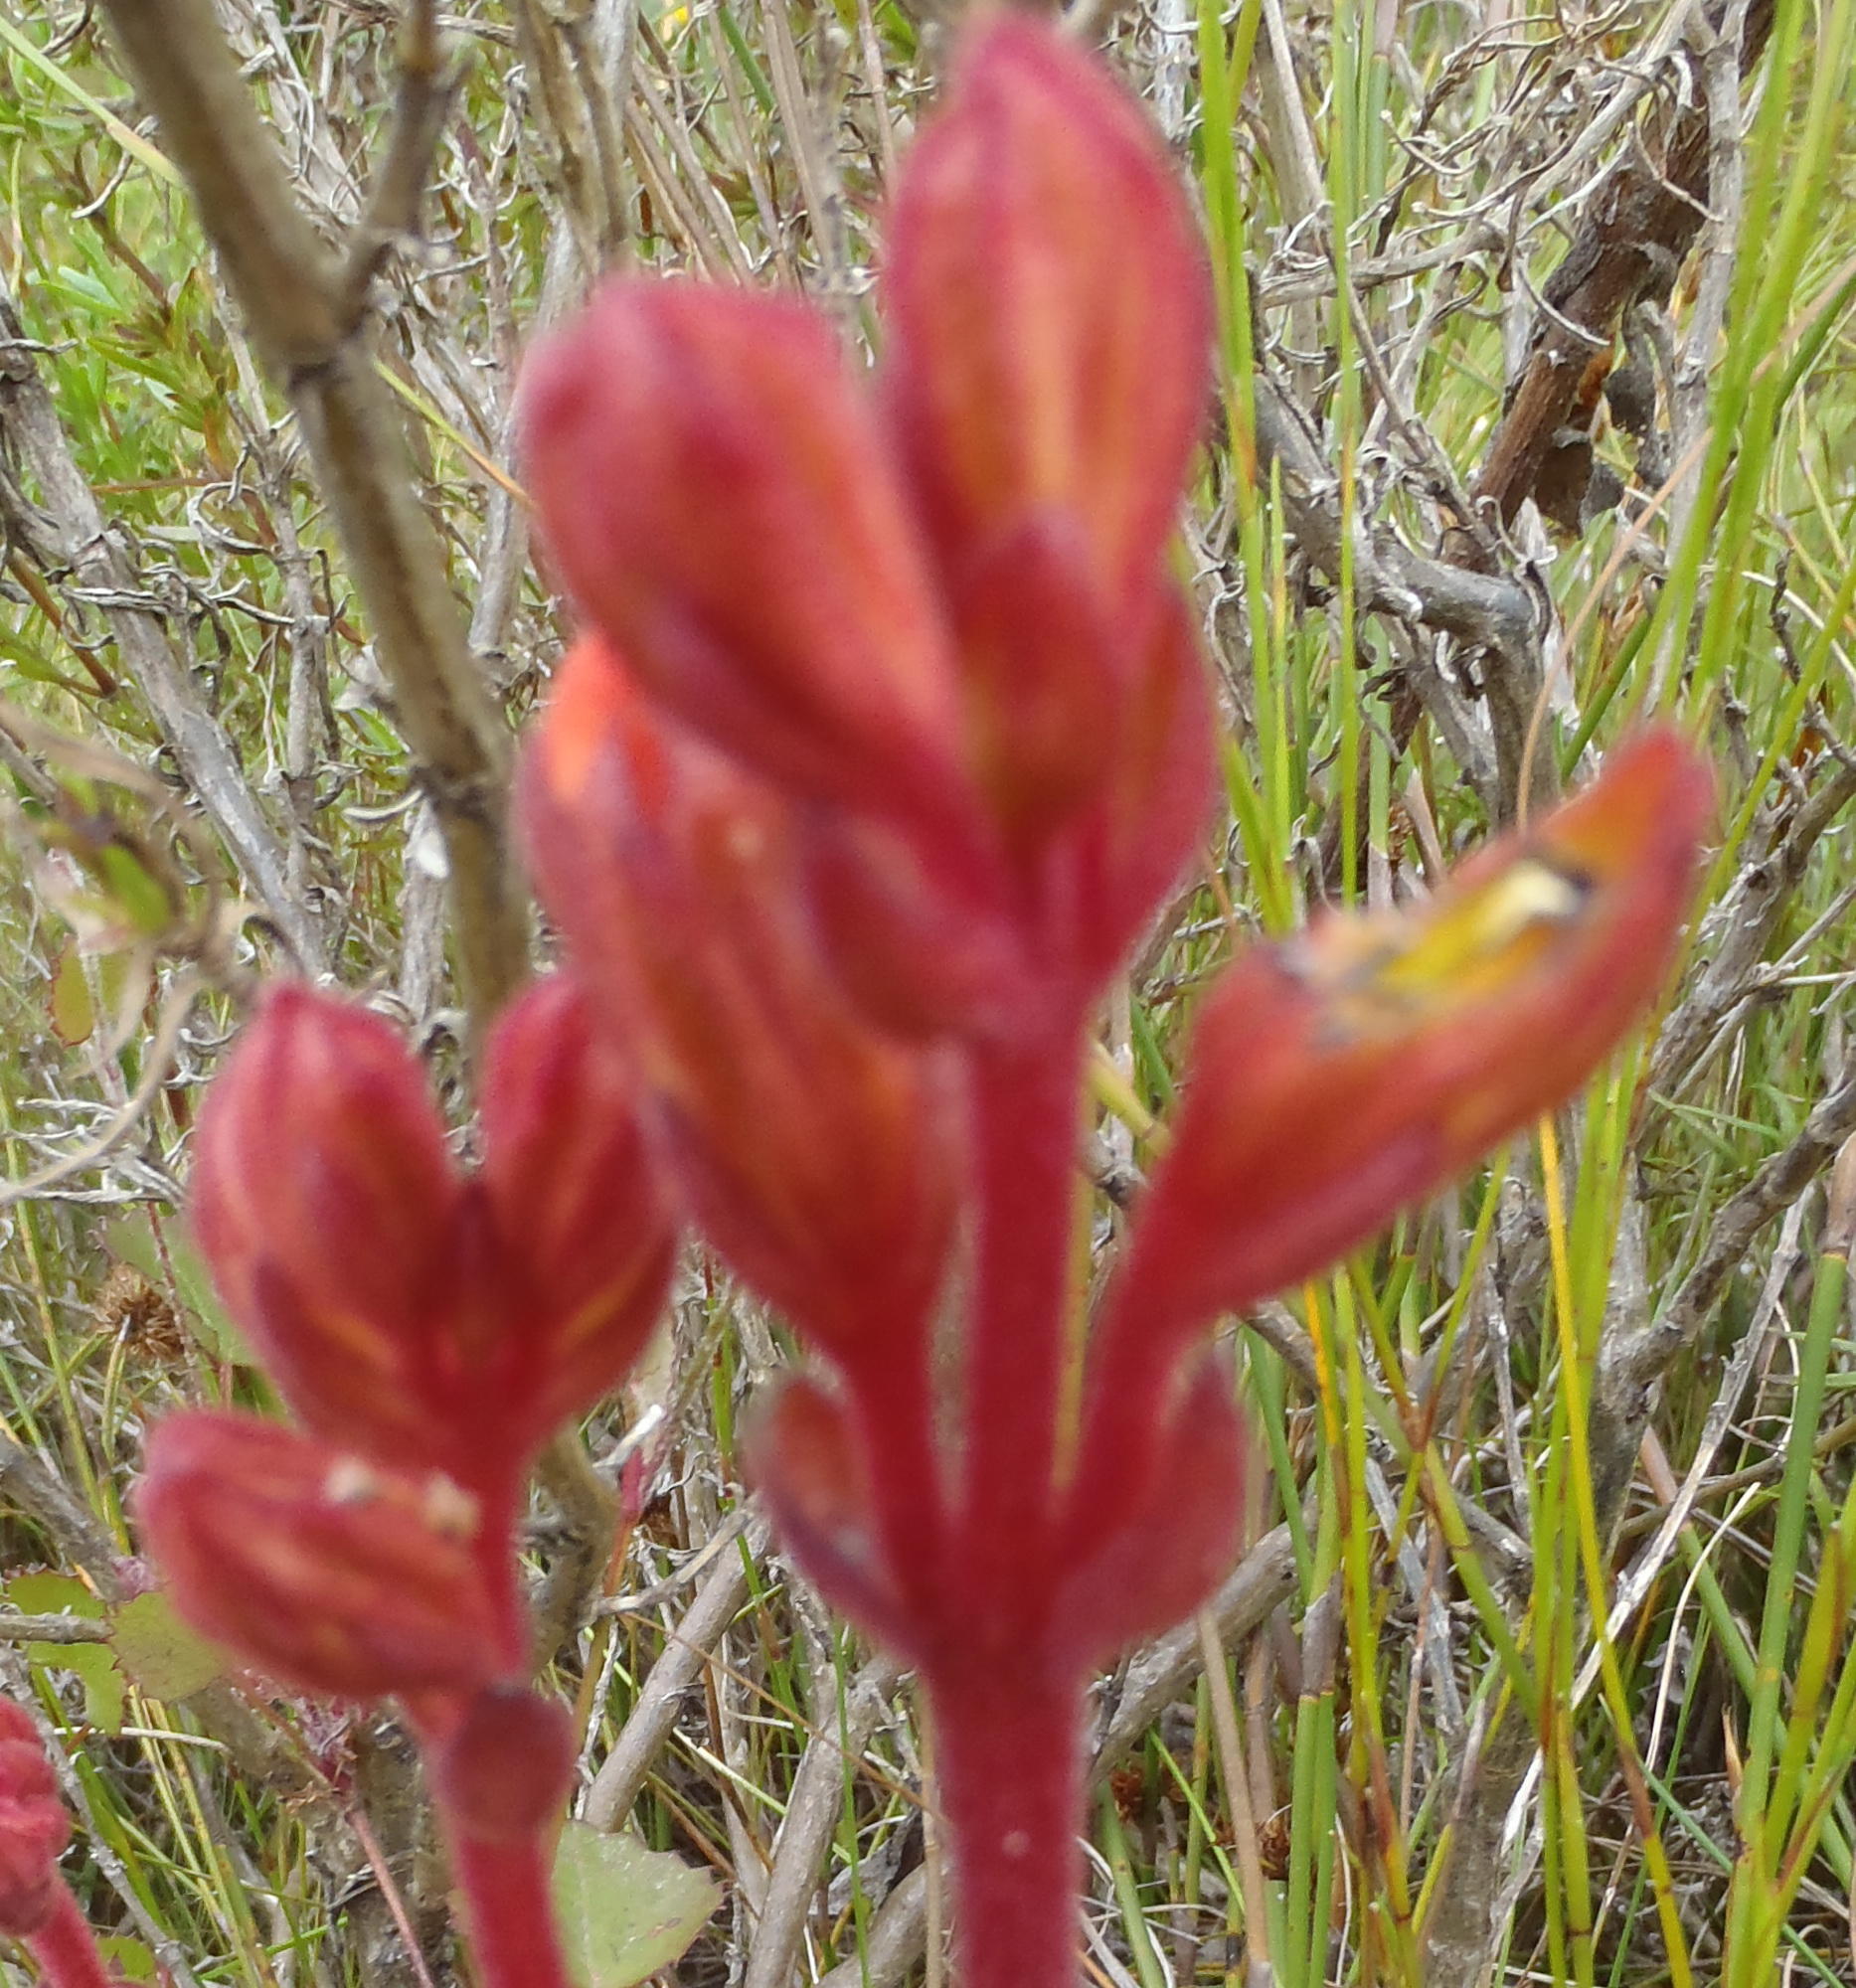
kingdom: Plantae
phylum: Tracheophyta
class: Magnoliopsida
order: Lamiales
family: Orobanchaceae
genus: Harveya
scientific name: Harveya stenosiphon
